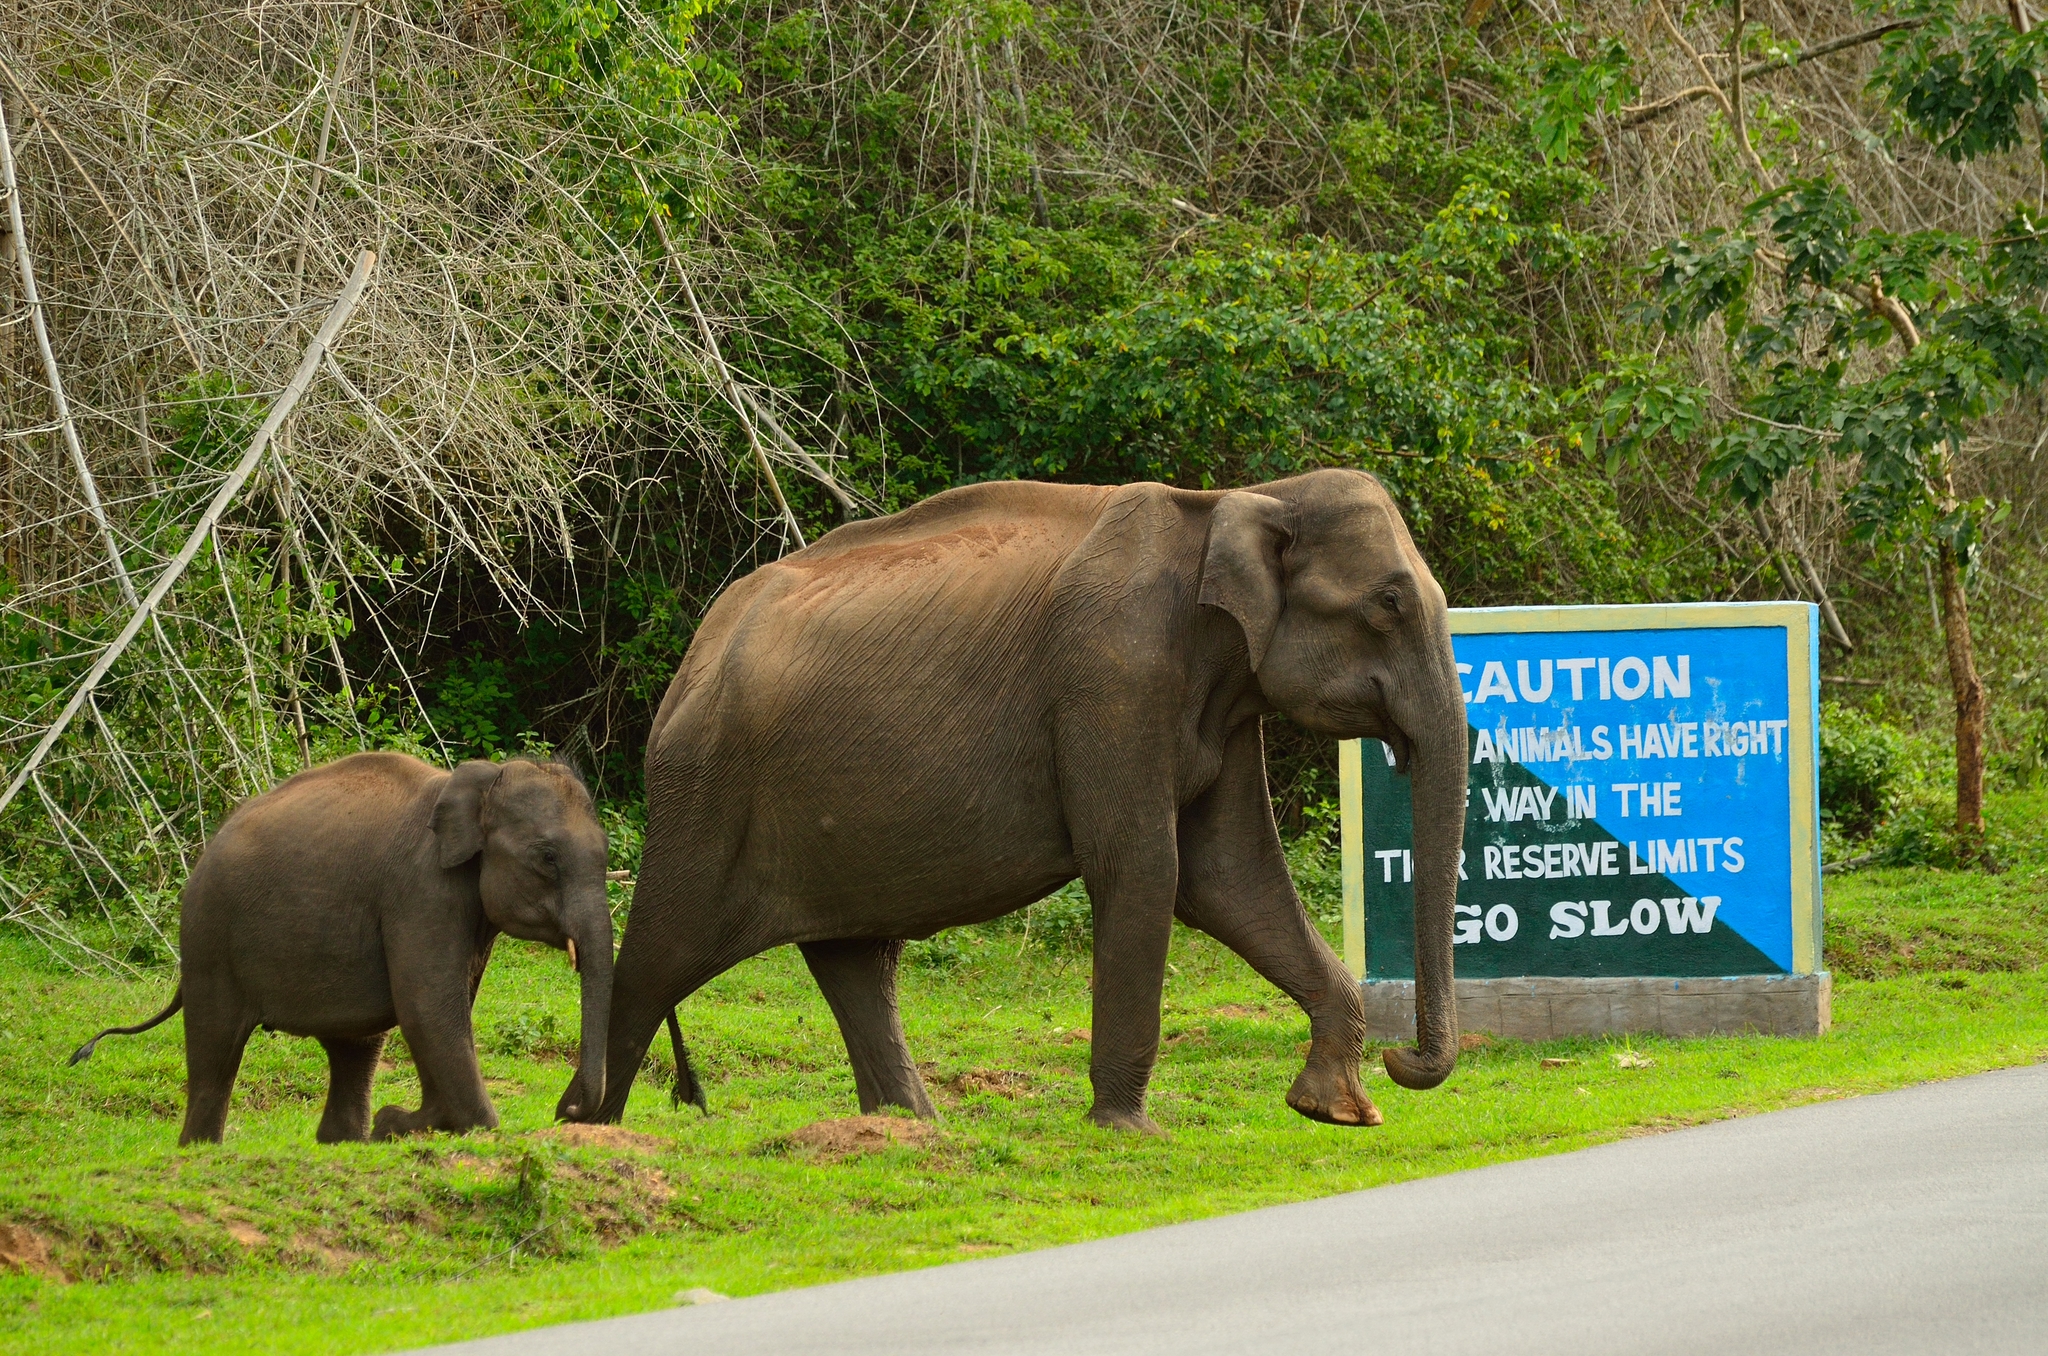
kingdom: Animalia
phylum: Chordata
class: Mammalia
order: Proboscidea
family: Elephantidae
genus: Elephas
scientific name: Elephas maximus
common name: Asian elephant
